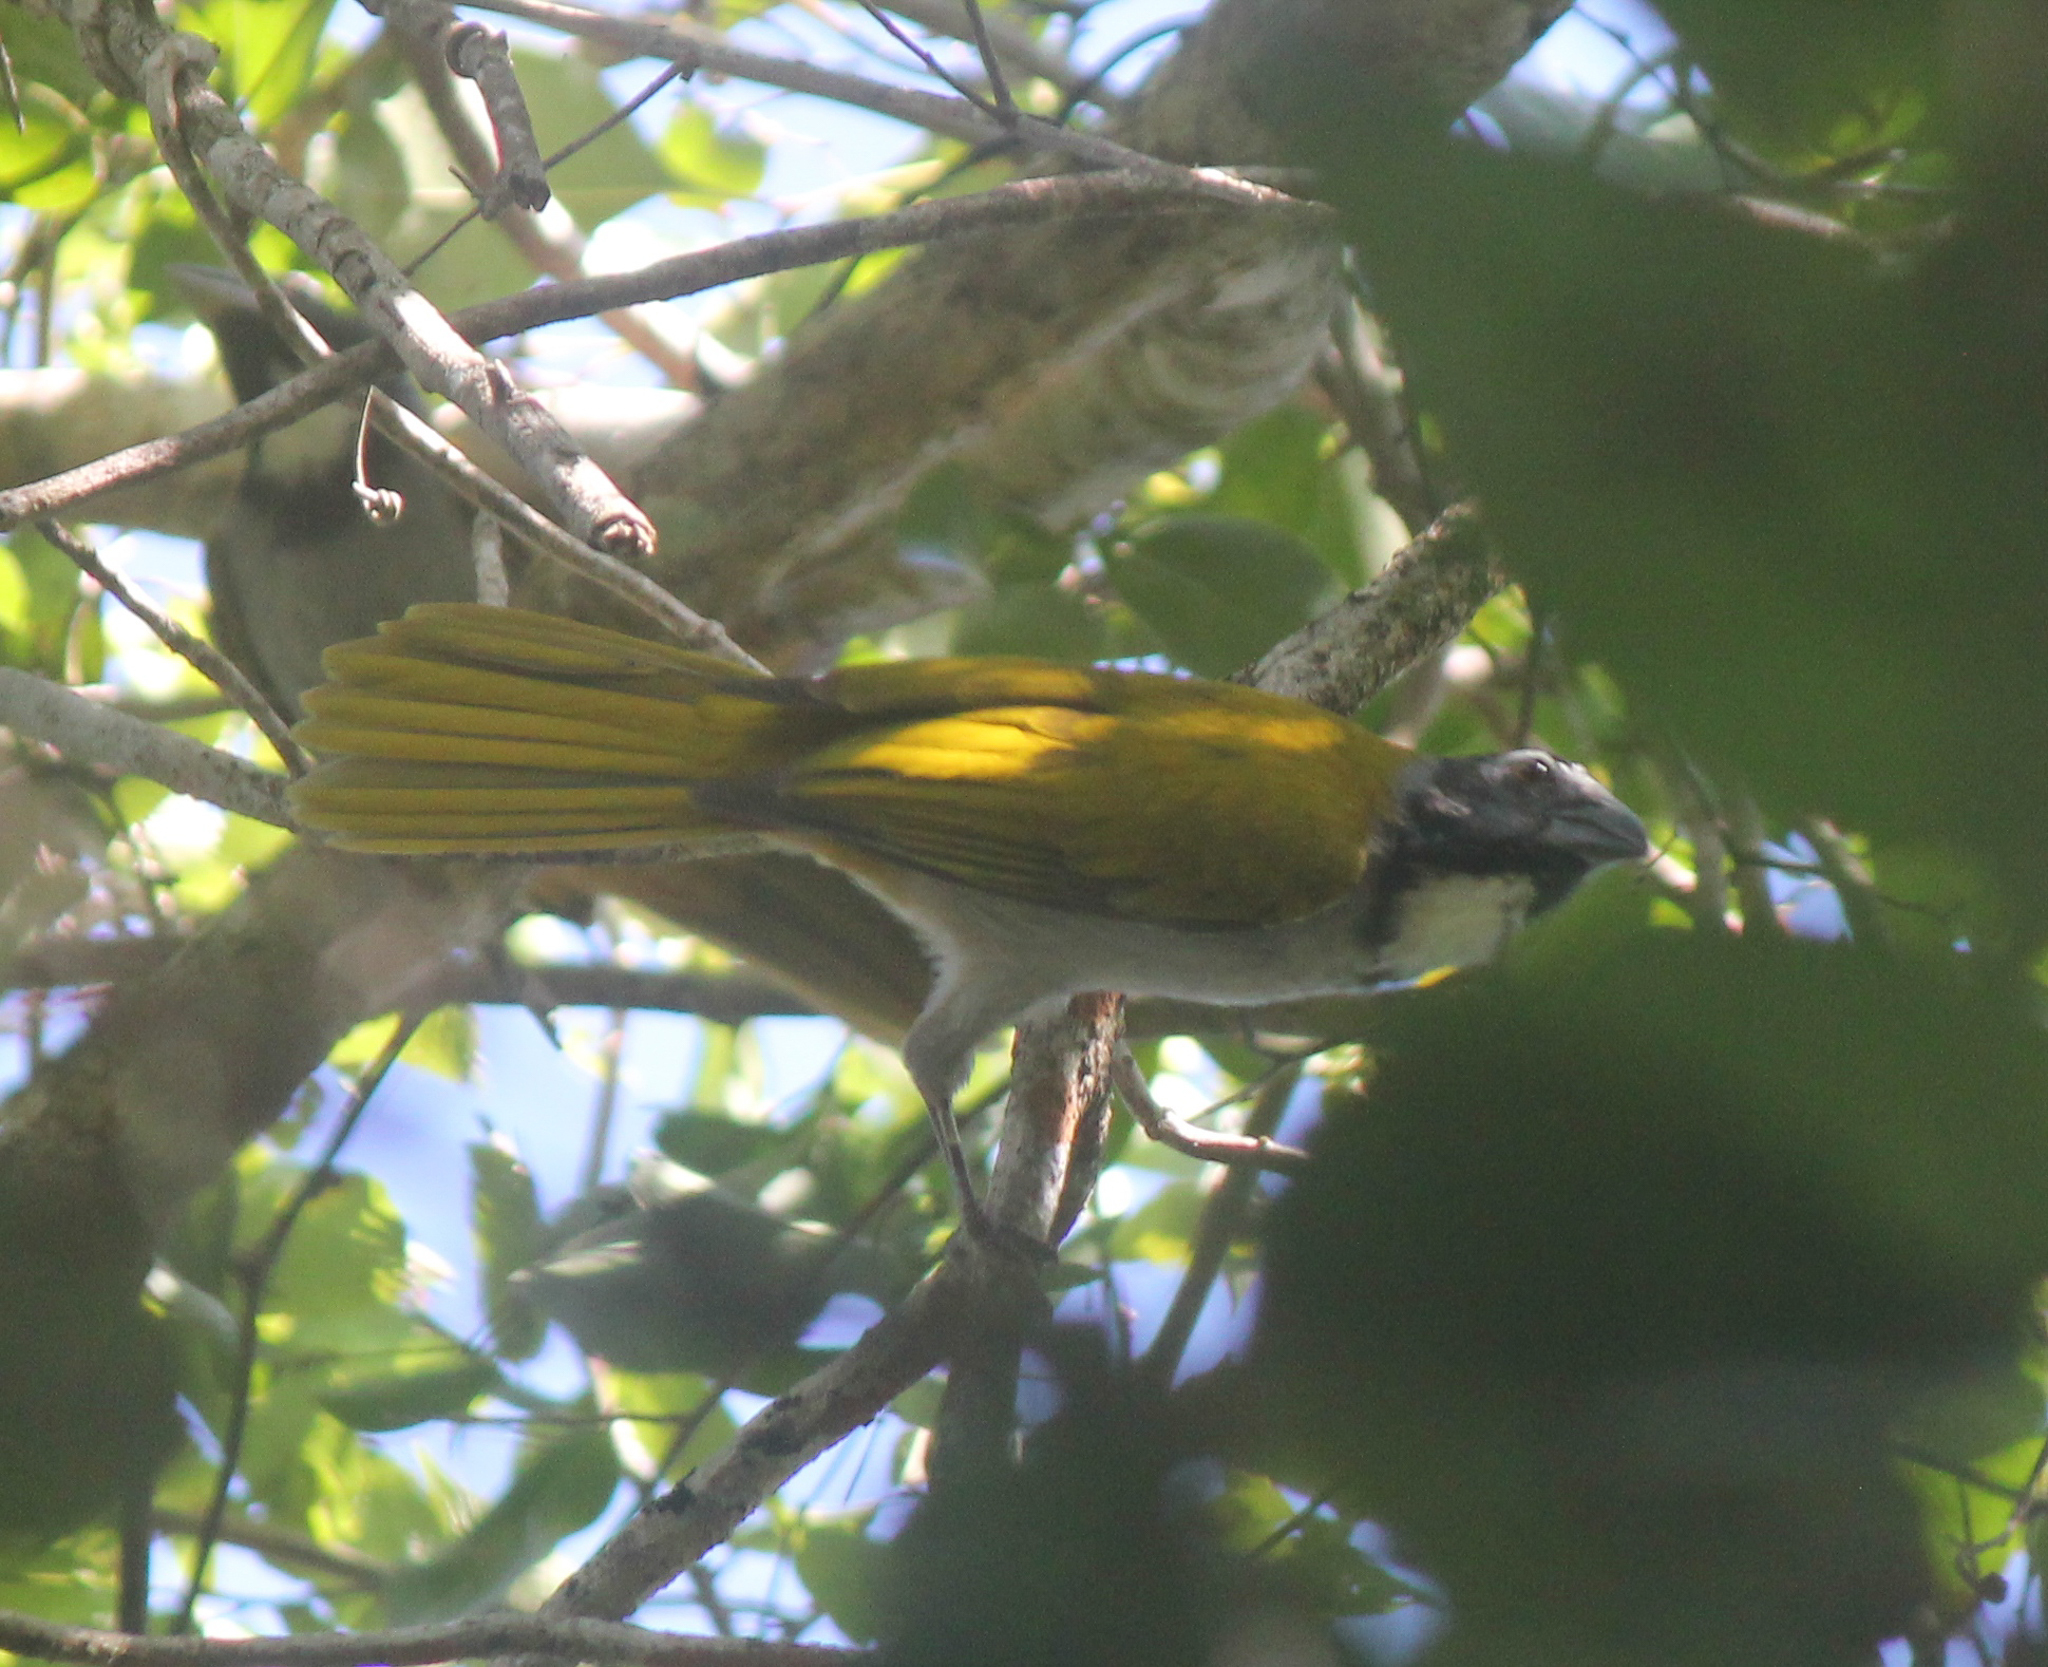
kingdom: Animalia
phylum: Chordata
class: Aves
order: Passeriformes
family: Thraupidae
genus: Saltator
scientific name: Saltator atriceps
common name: Black-headed saltator
